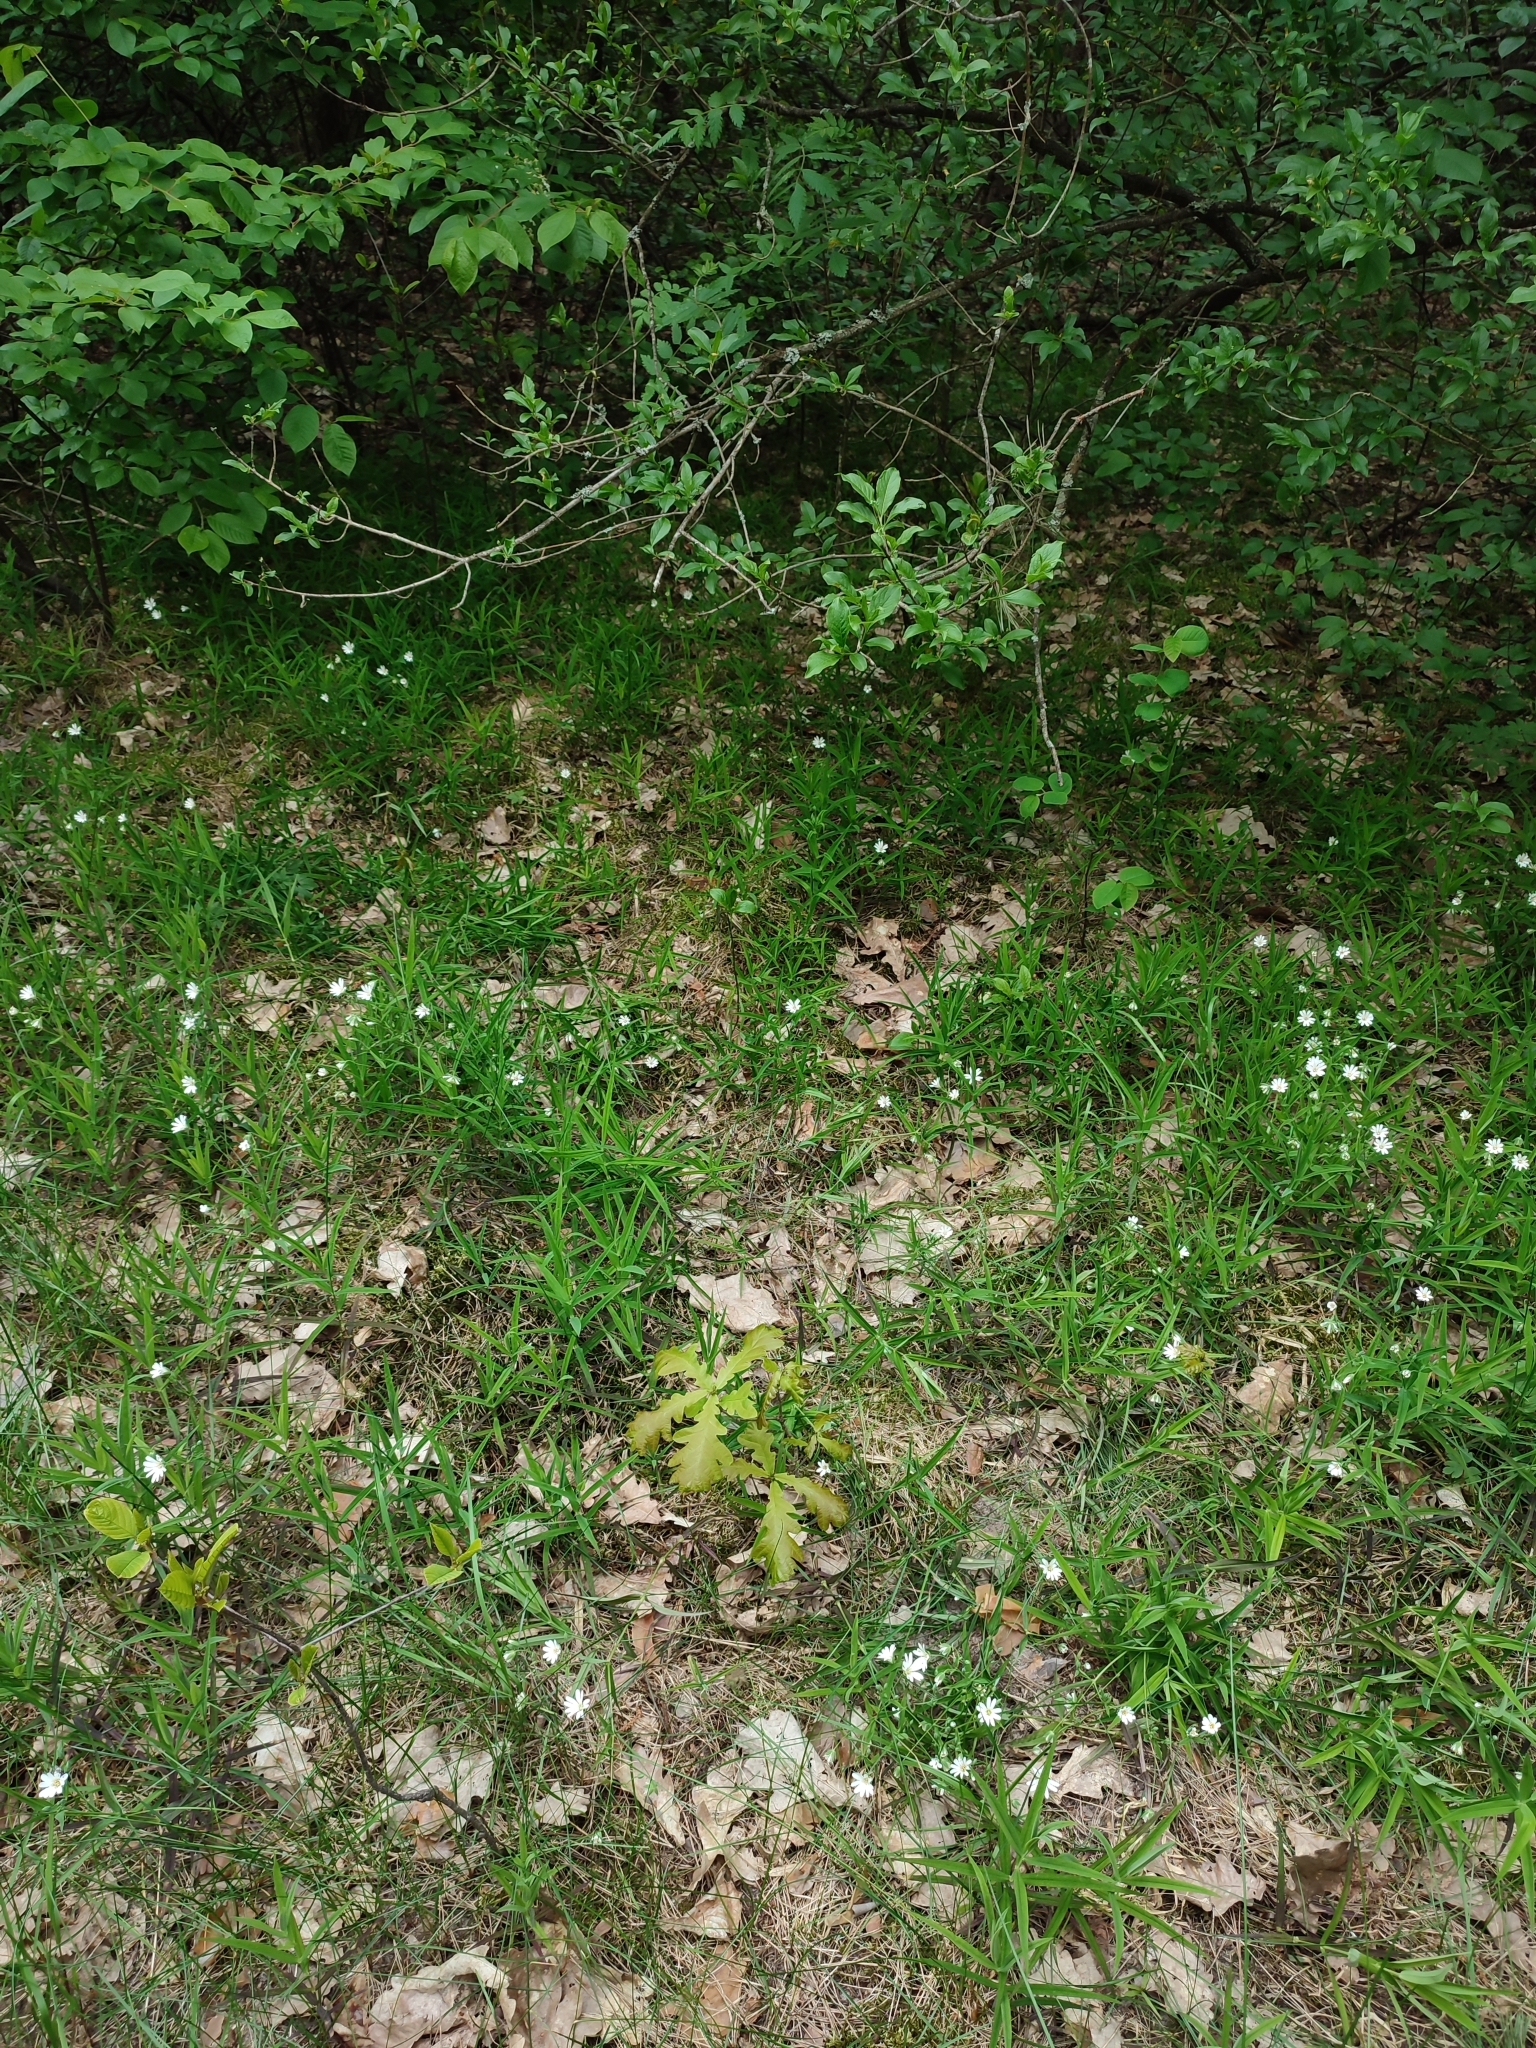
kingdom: Plantae
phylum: Tracheophyta
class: Magnoliopsida
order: Fagales
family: Fagaceae
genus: Quercus
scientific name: Quercus robur
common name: Pedunculate oak
